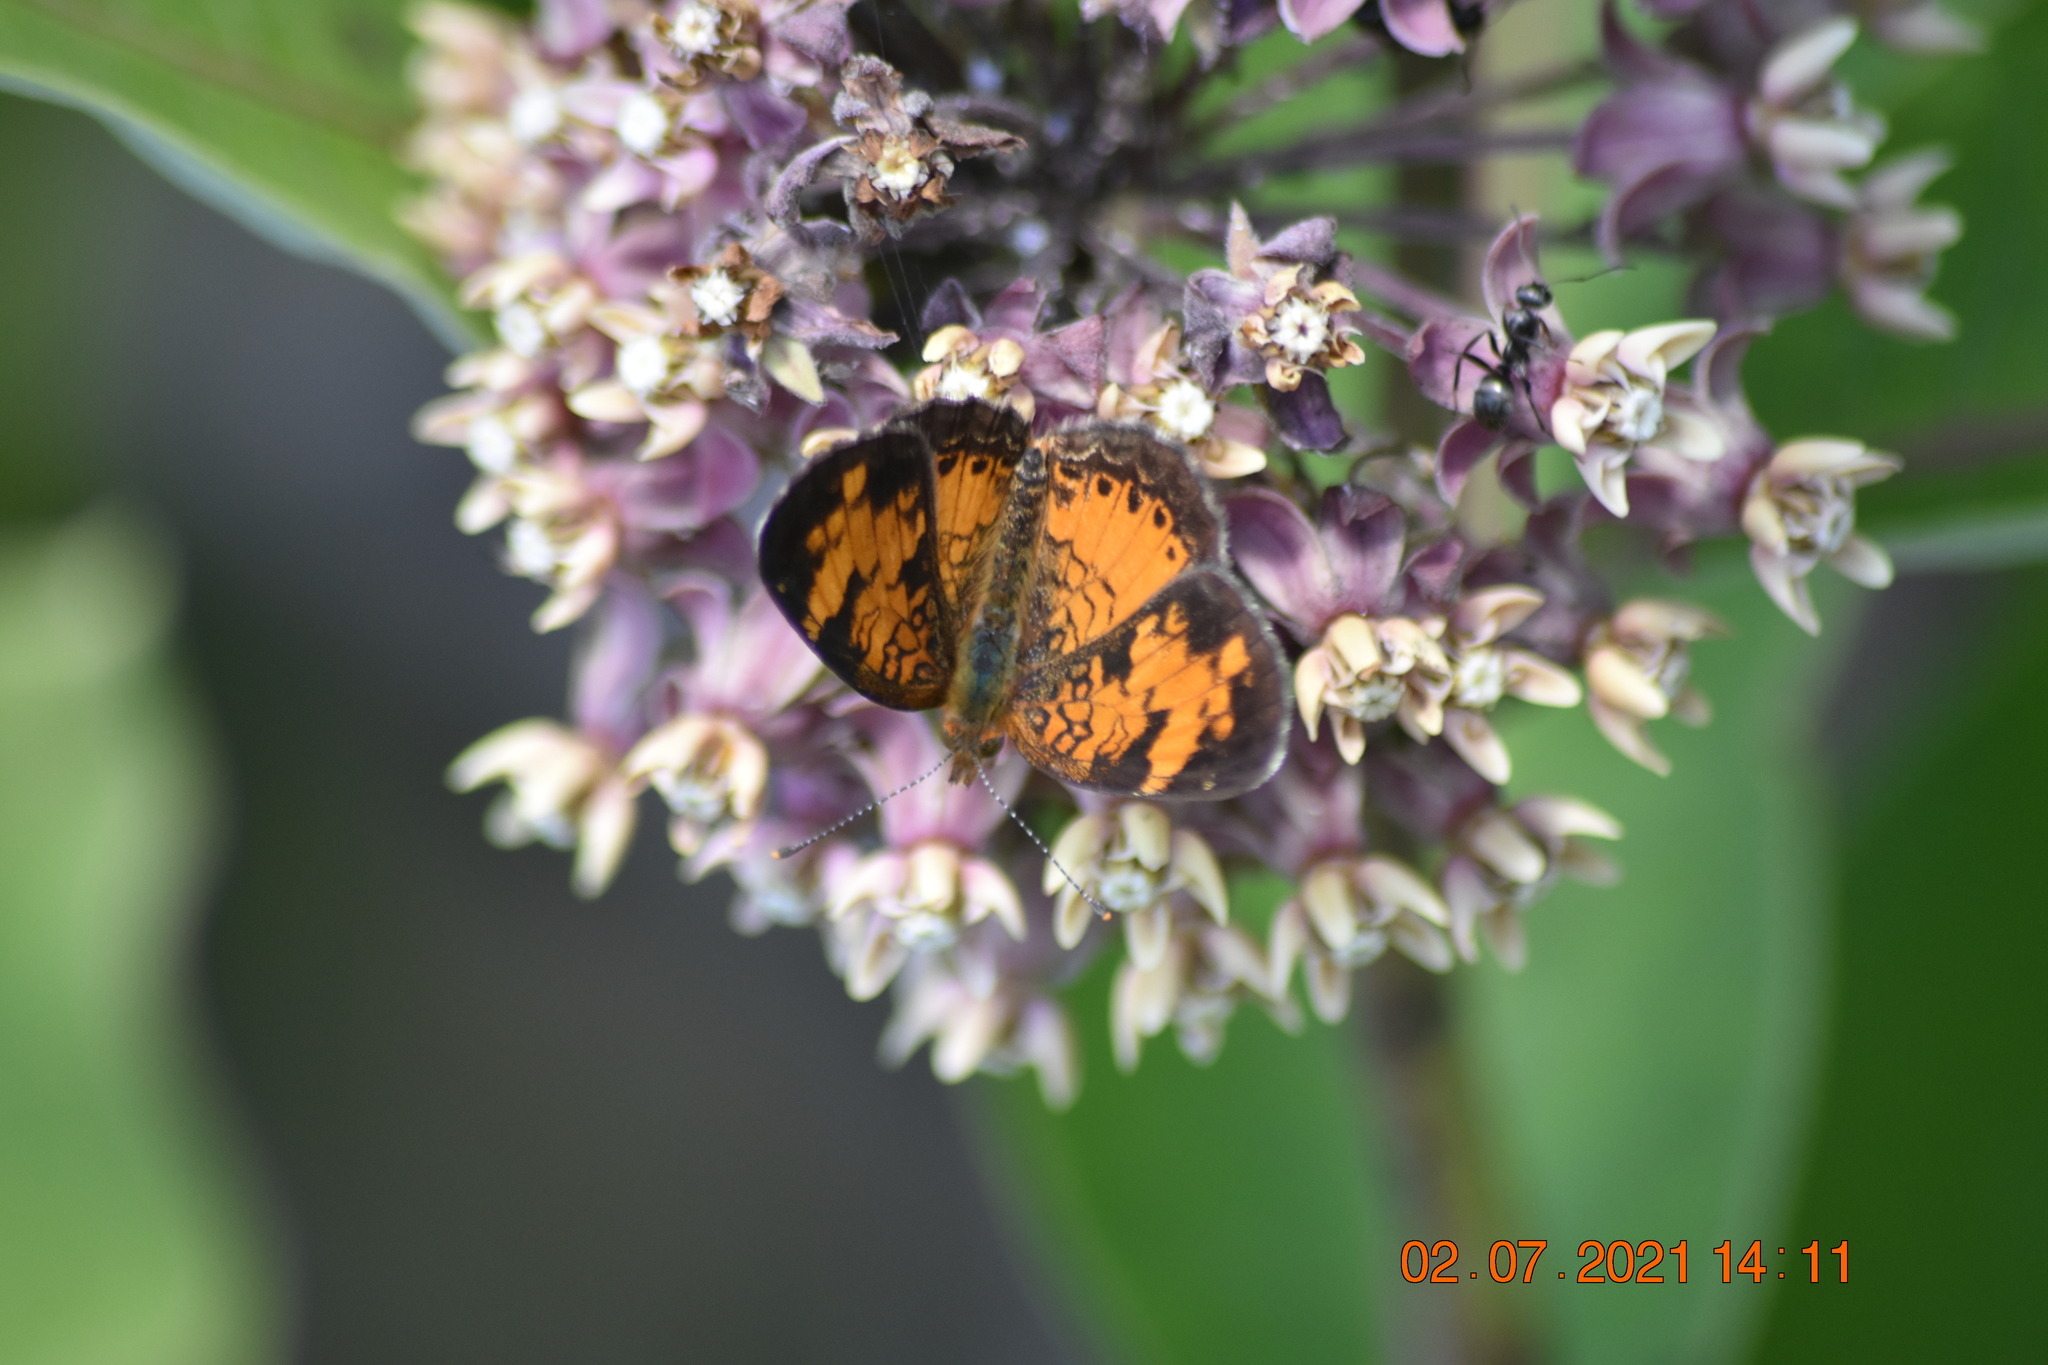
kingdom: Animalia
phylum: Arthropoda
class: Insecta
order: Lepidoptera
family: Nymphalidae
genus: Phyciodes
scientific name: Phyciodes tharos
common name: Pearl crescent
